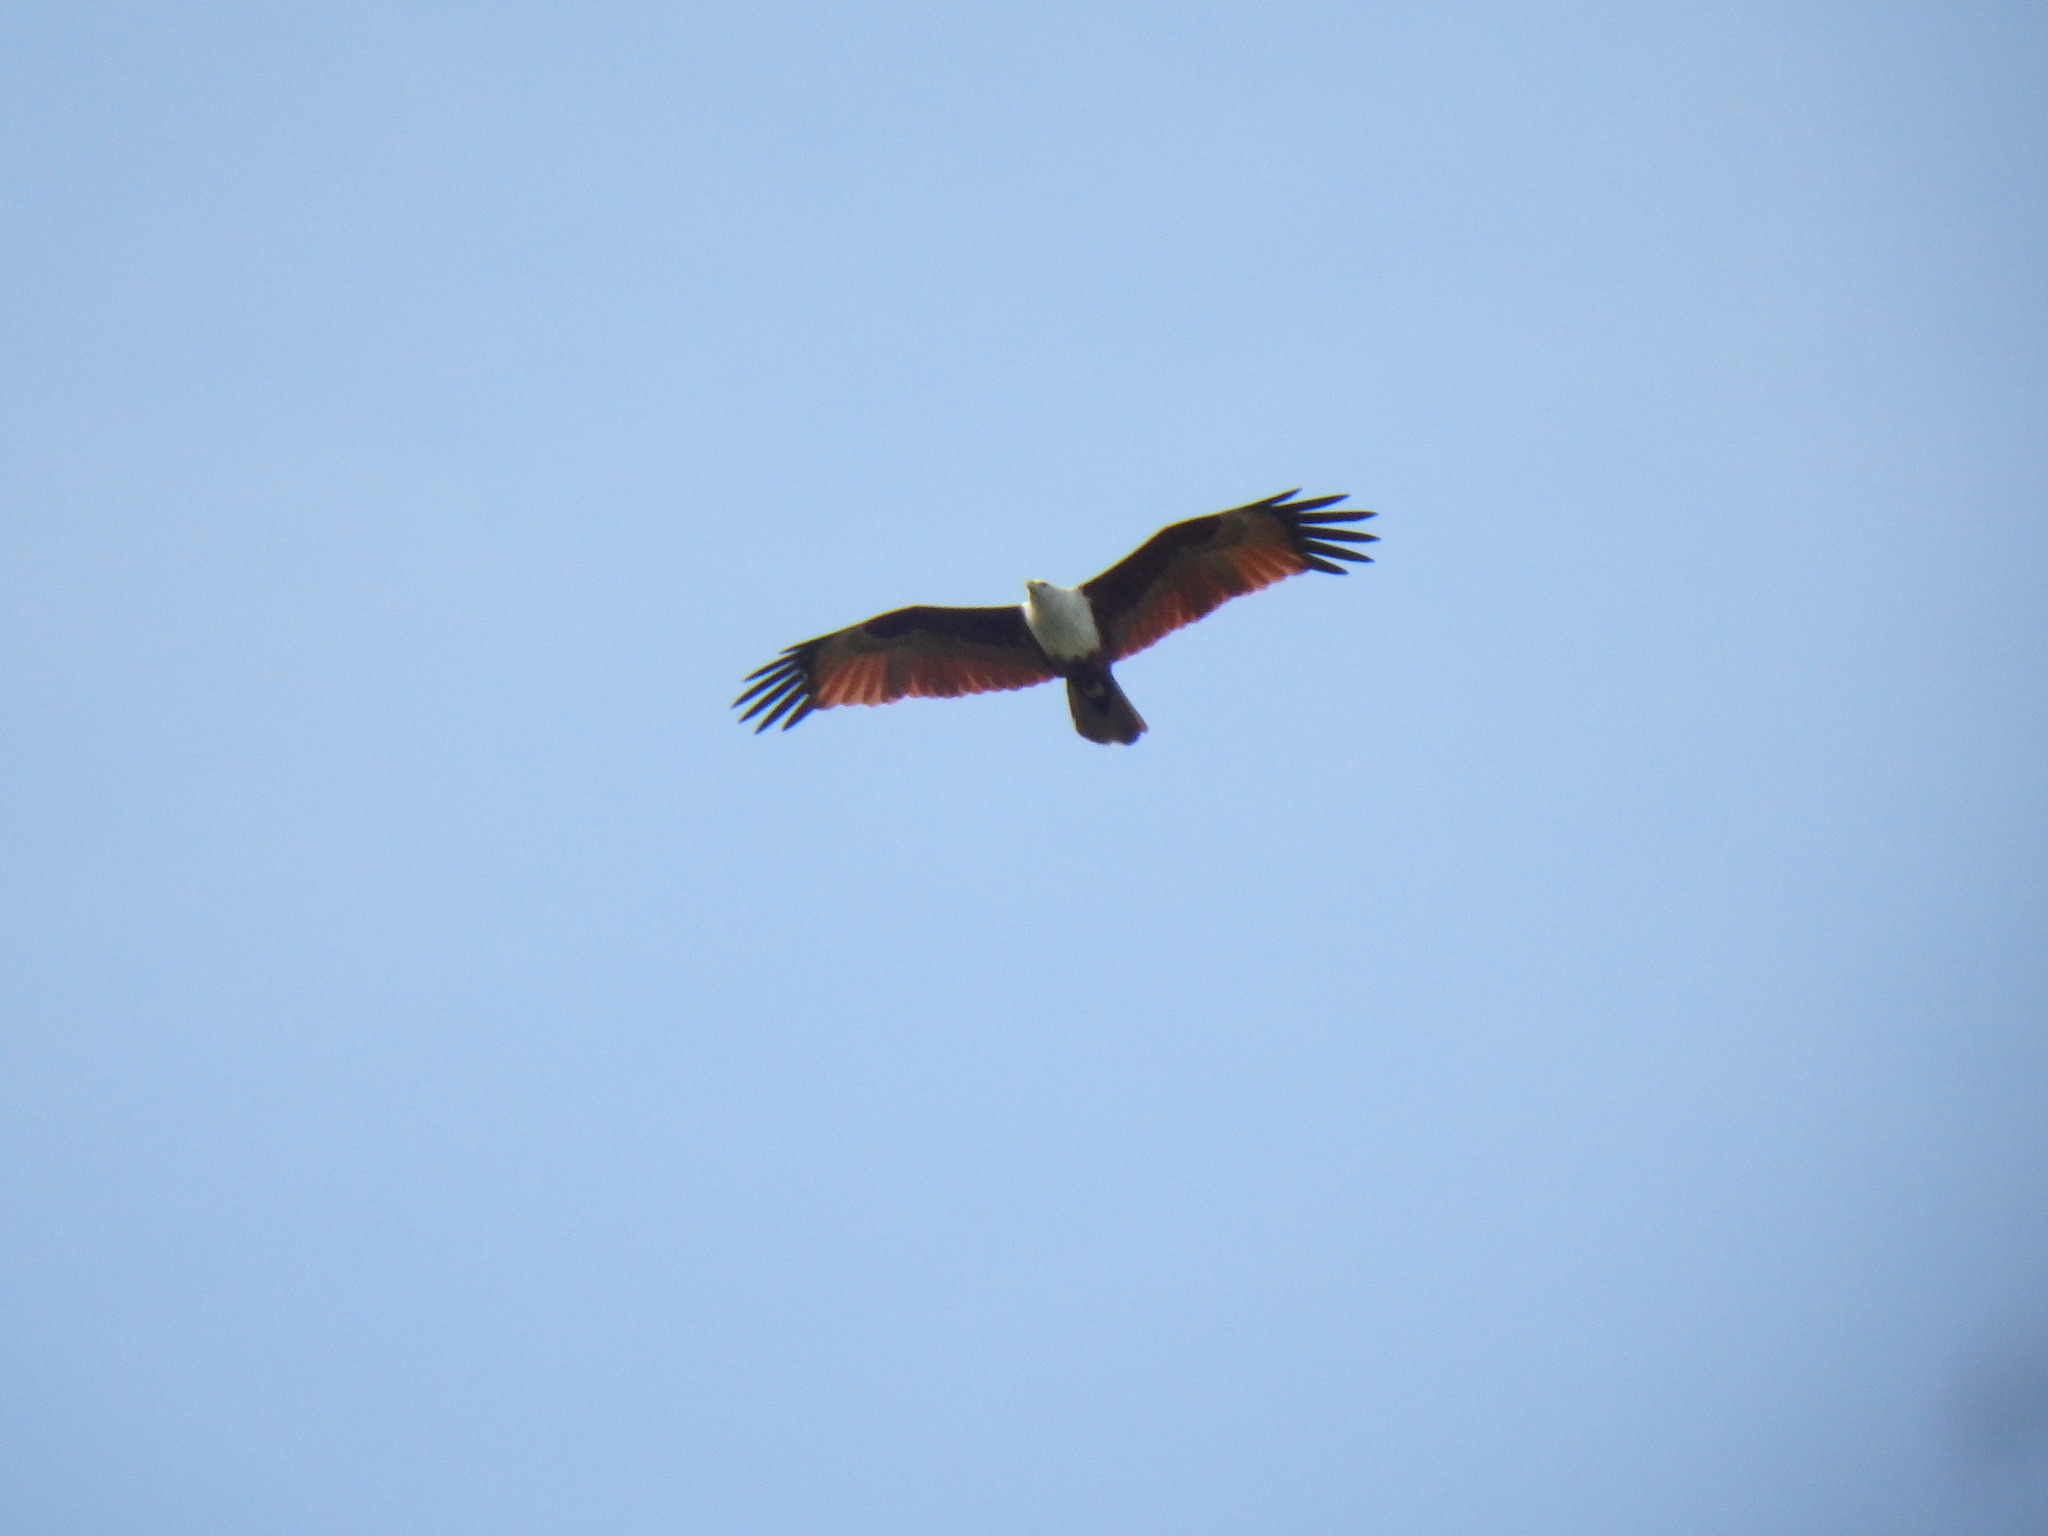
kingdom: Animalia
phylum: Chordata
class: Aves
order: Accipitriformes
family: Accipitridae
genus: Haliastur
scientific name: Haliastur indus
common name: Brahminy kite
